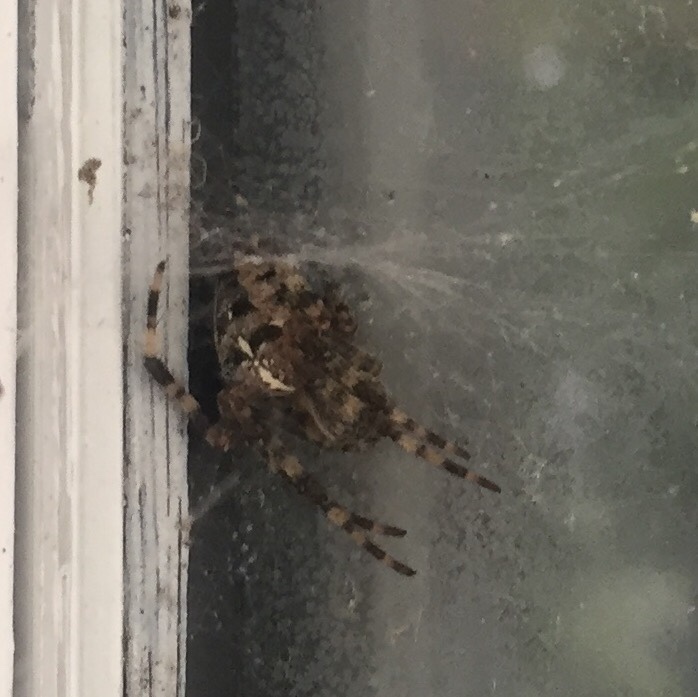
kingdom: Animalia
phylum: Arthropoda
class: Arachnida
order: Araneae
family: Araneidae
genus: Araneus
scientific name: Araneus diadematus
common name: Cross orbweaver
